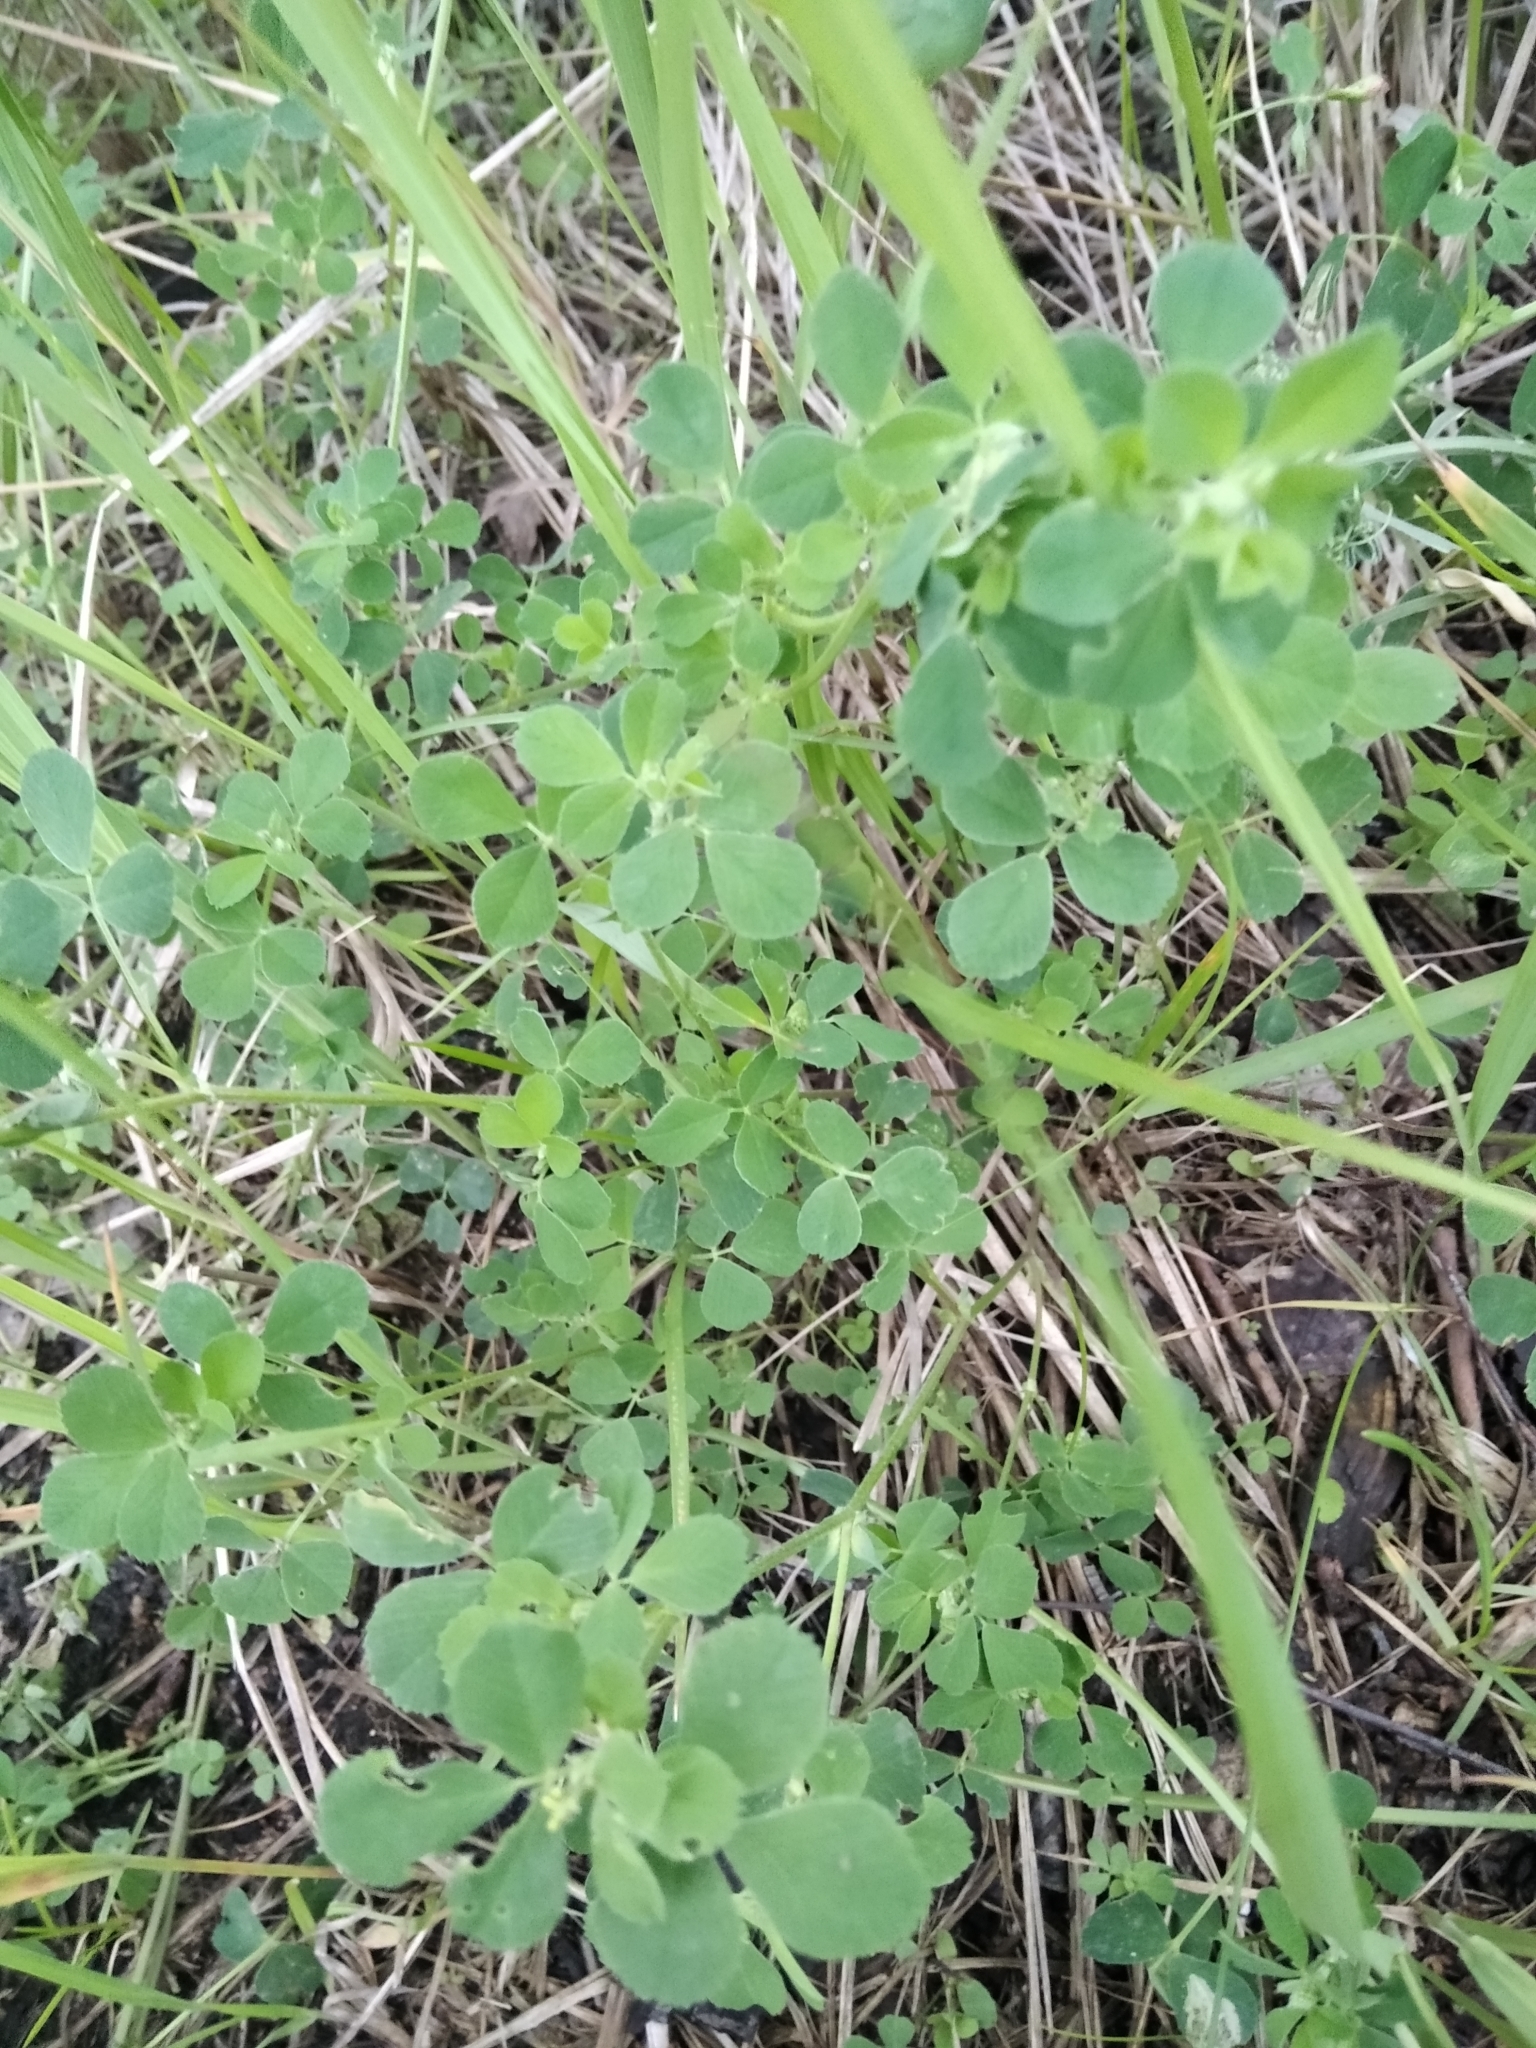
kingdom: Plantae
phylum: Tracheophyta
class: Magnoliopsida
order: Fabales
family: Fabaceae
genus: Medicago
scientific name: Medicago lupulina
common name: Black medick
